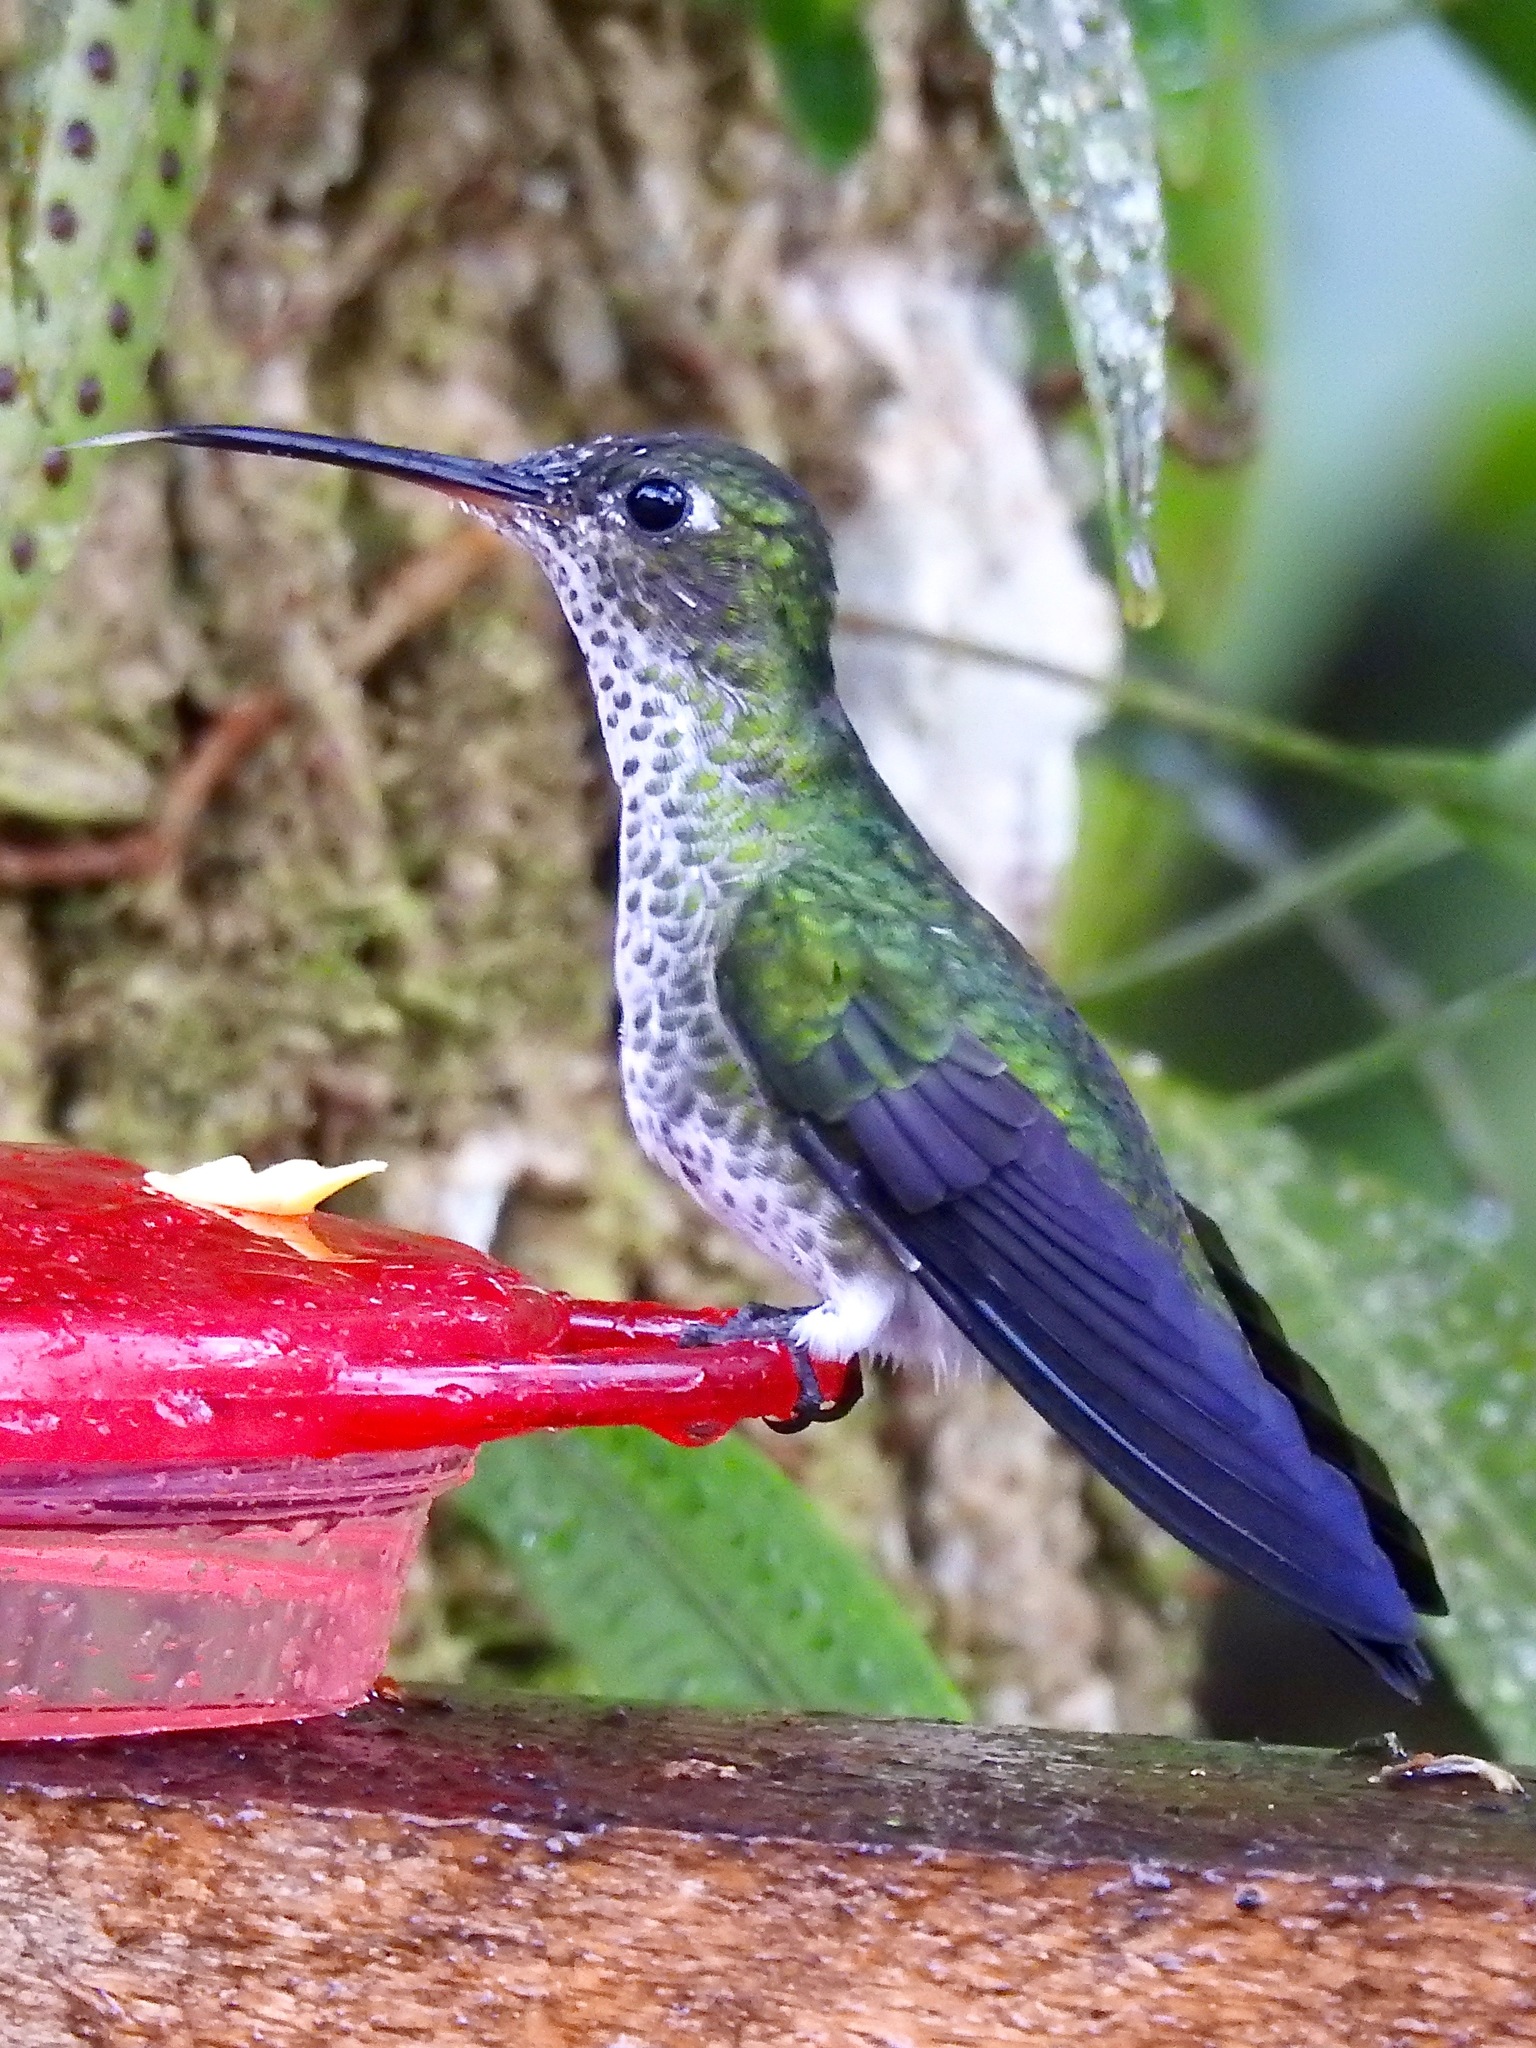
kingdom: Animalia
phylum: Chordata
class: Aves
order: Apodiformes
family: Trochilidae
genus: Taphrospilus
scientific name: Taphrospilus hypostictus
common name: Many-spotted hummingbird
